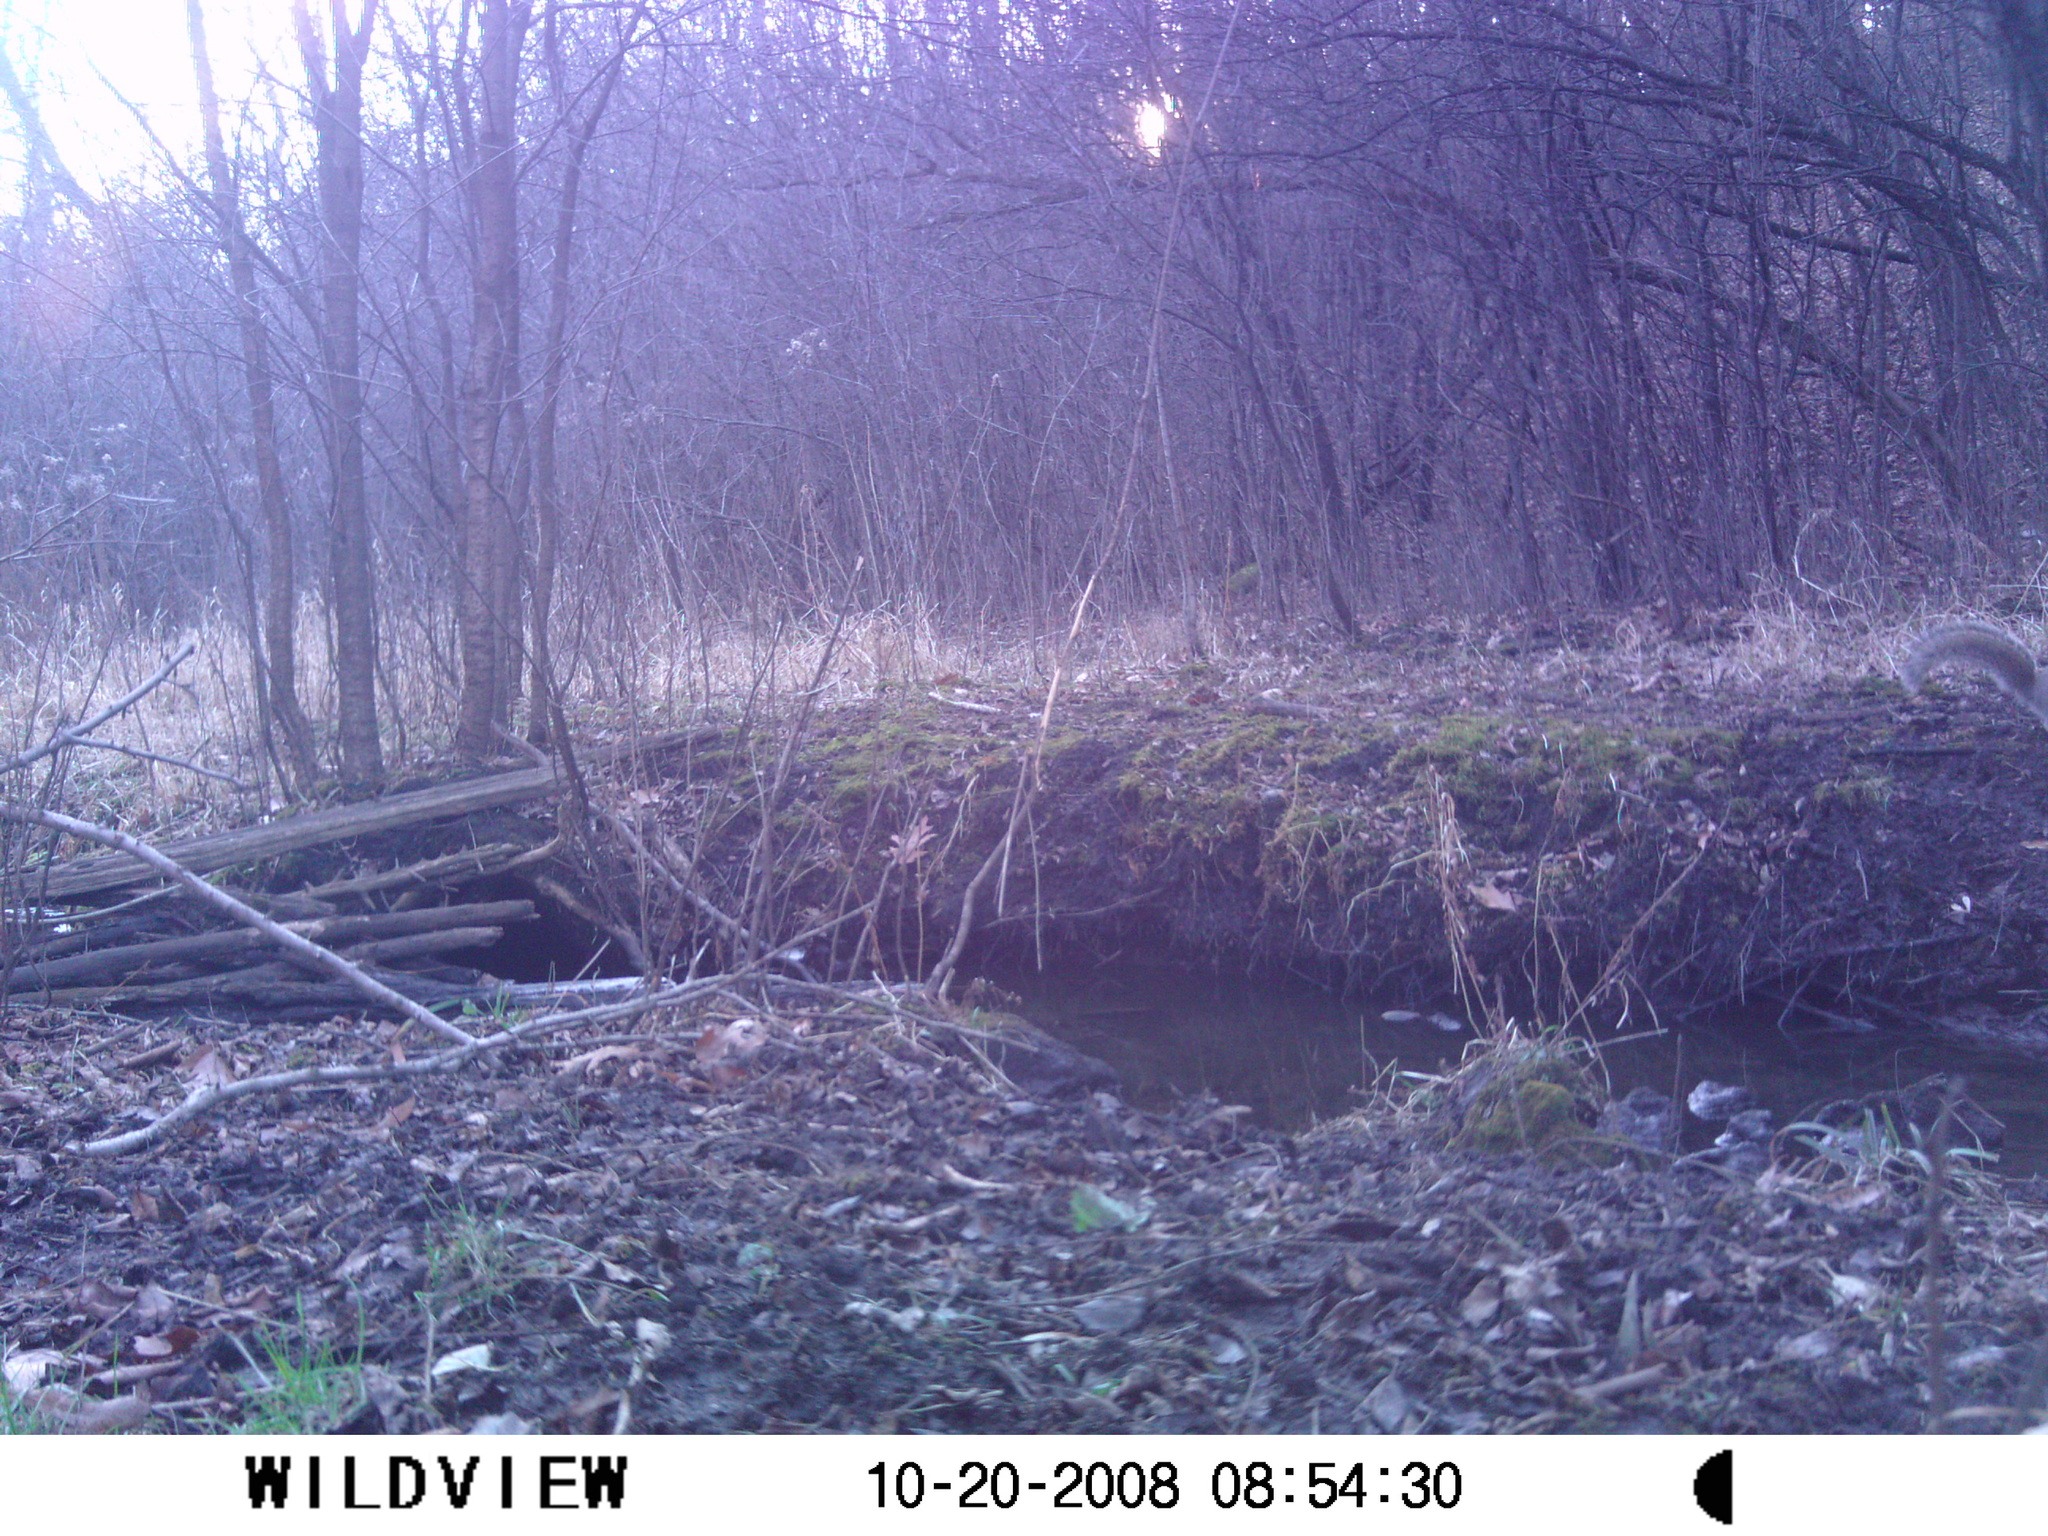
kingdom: Animalia
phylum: Chordata
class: Mammalia
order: Rodentia
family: Sciuridae
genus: Sciurus
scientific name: Sciurus carolinensis
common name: Eastern gray squirrel
